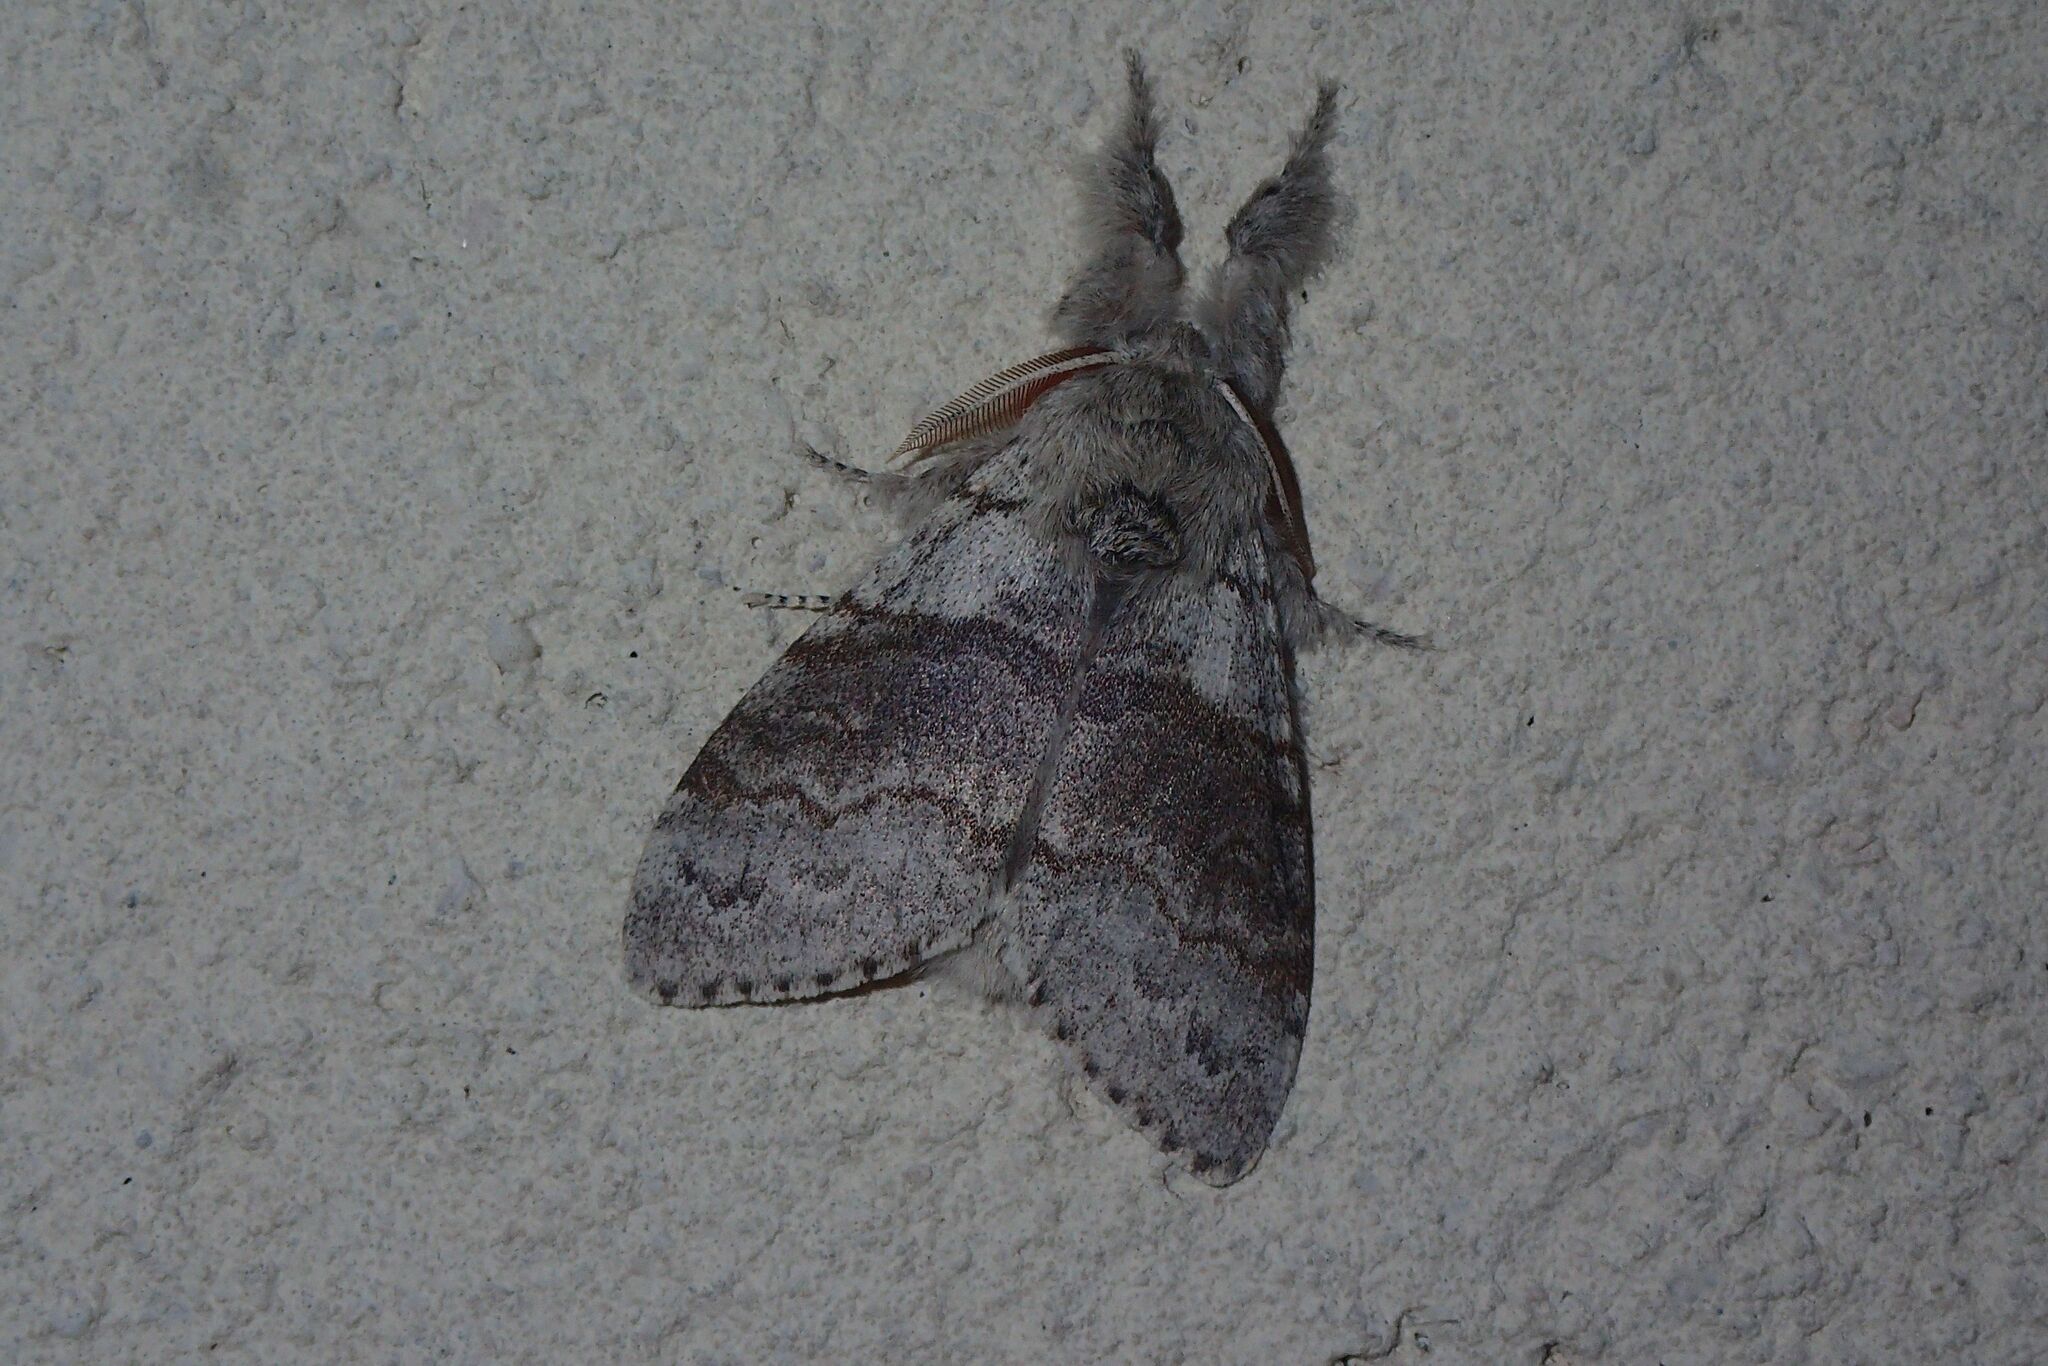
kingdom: Animalia
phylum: Arthropoda
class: Insecta
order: Lepidoptera
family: Erebidae
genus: Calliteara
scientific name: Calliteara pudibunda
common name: Pale tussock
